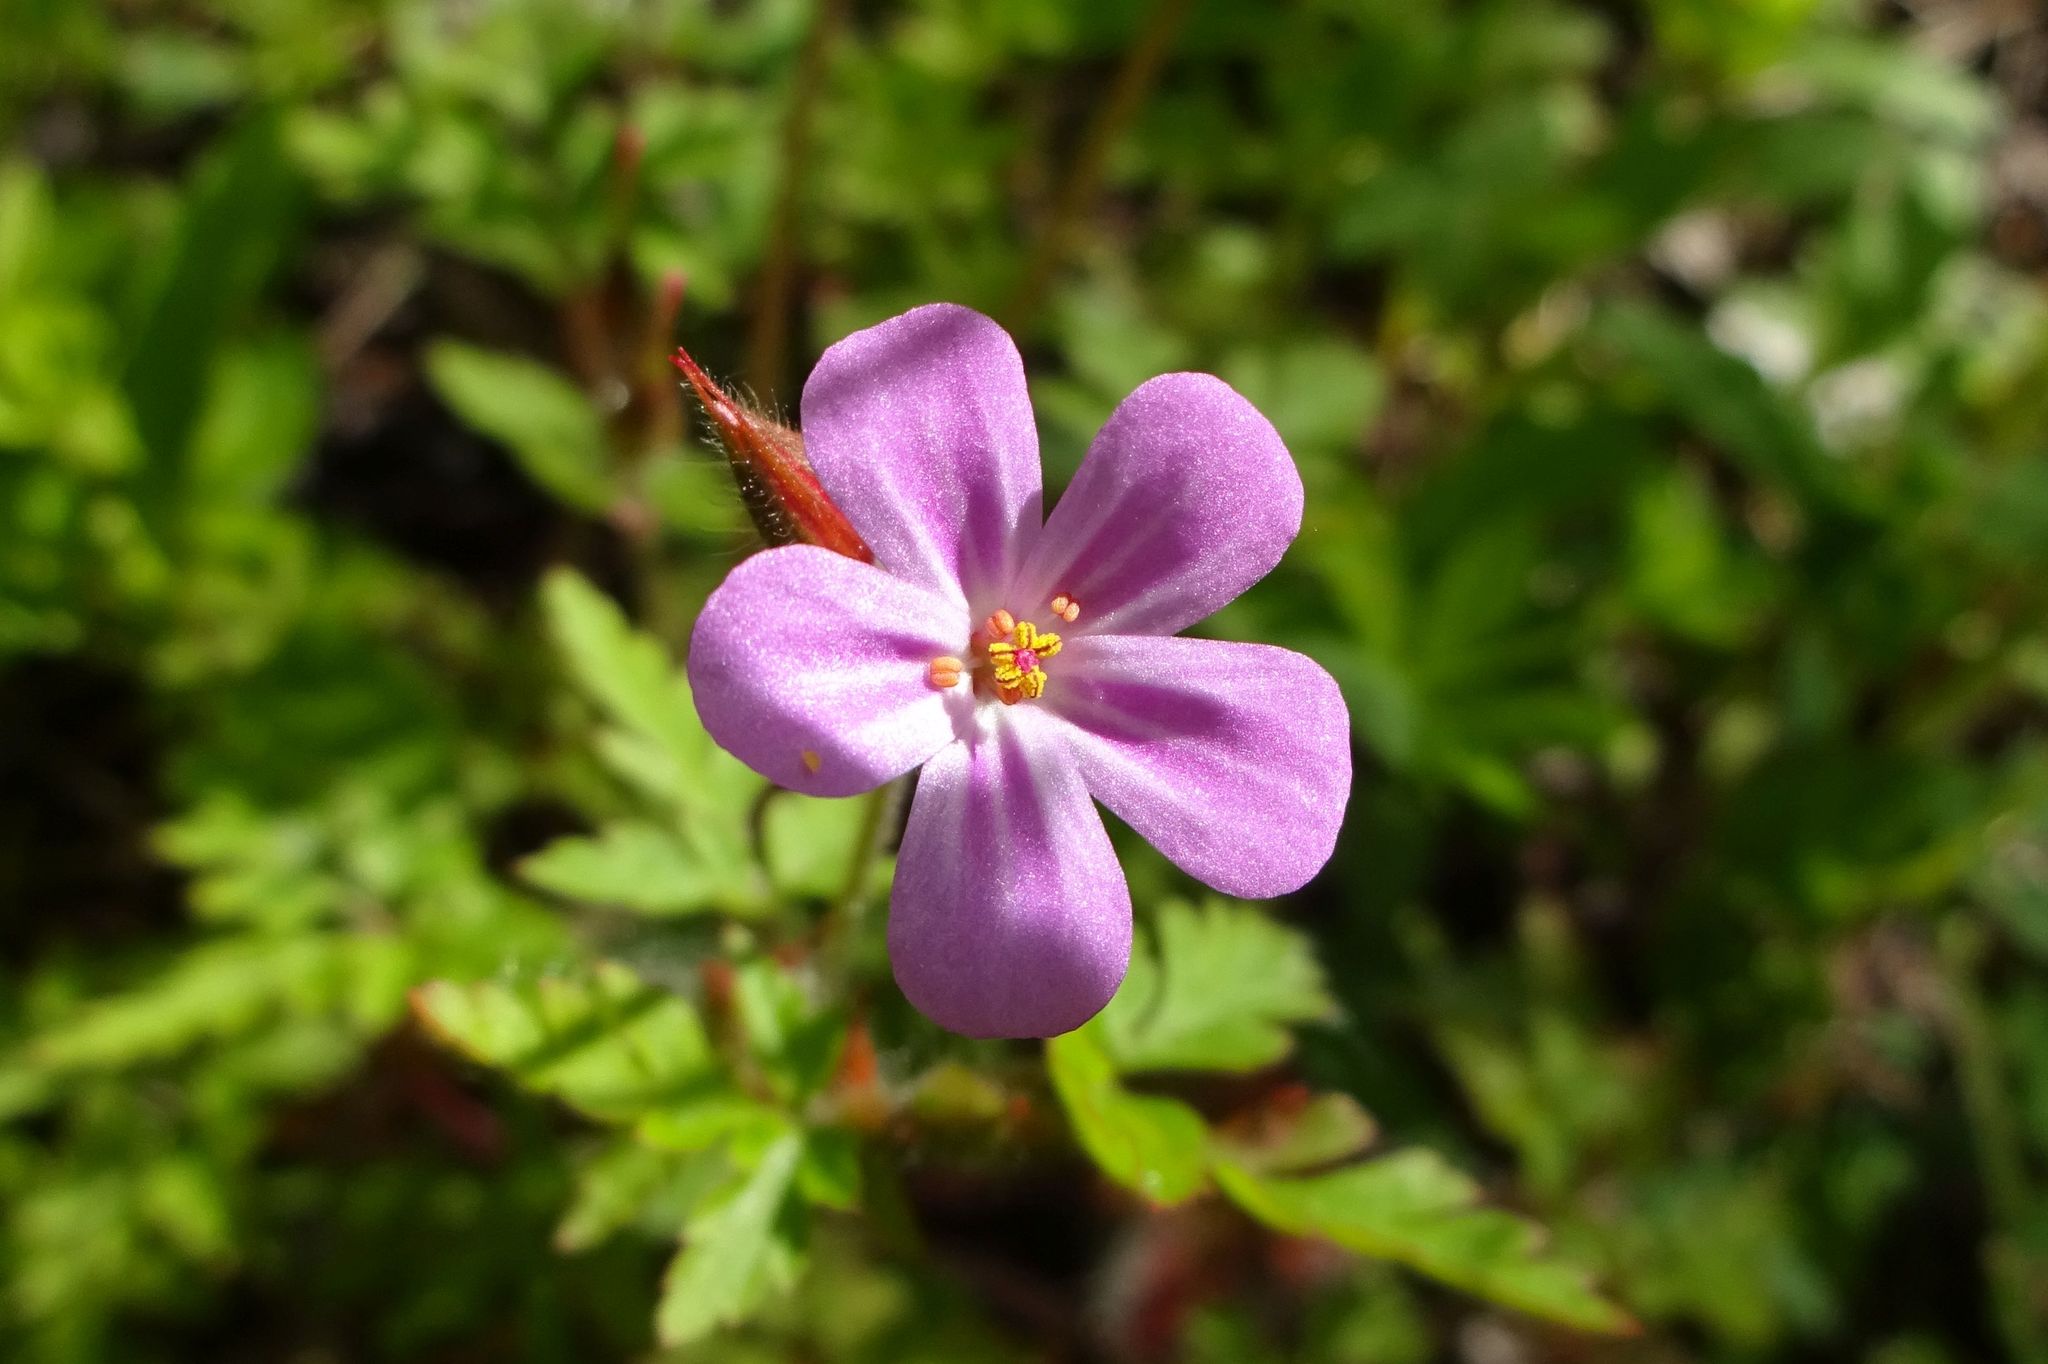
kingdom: Plantae
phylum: Tracheophyta
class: Magnoliopsida
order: Geraniales
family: Geraniaceae
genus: Geranium
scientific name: Geranium robertianum
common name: Herb-robert
